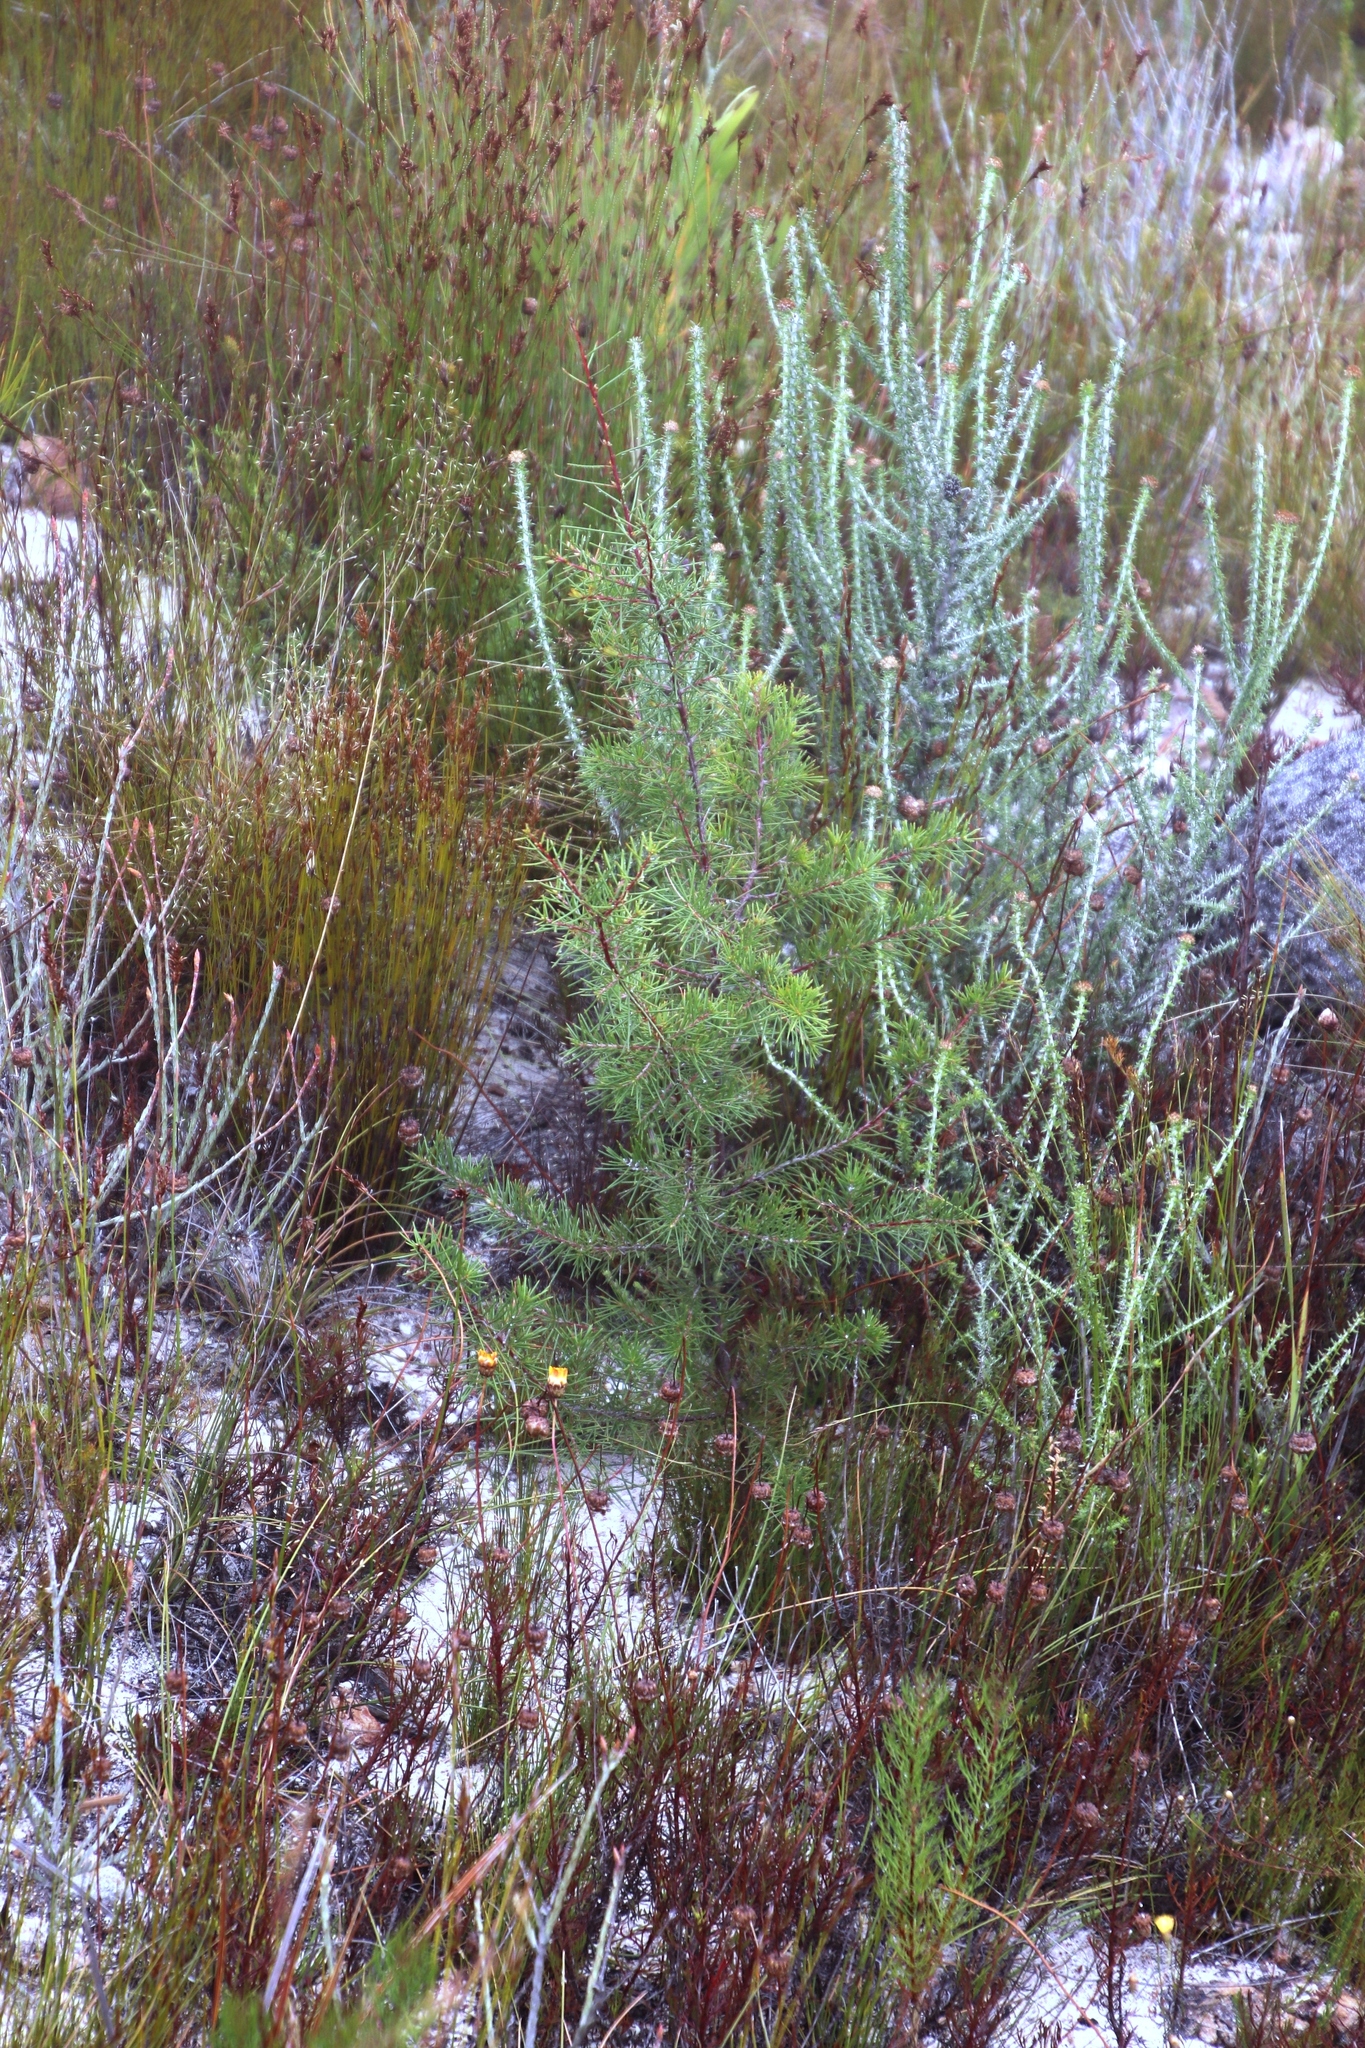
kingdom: Plantae
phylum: Tracheophyta
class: Magnoliopsida
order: Proteales
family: Proteaceae
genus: Hakea
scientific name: Hakea sericea
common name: Needle bush
